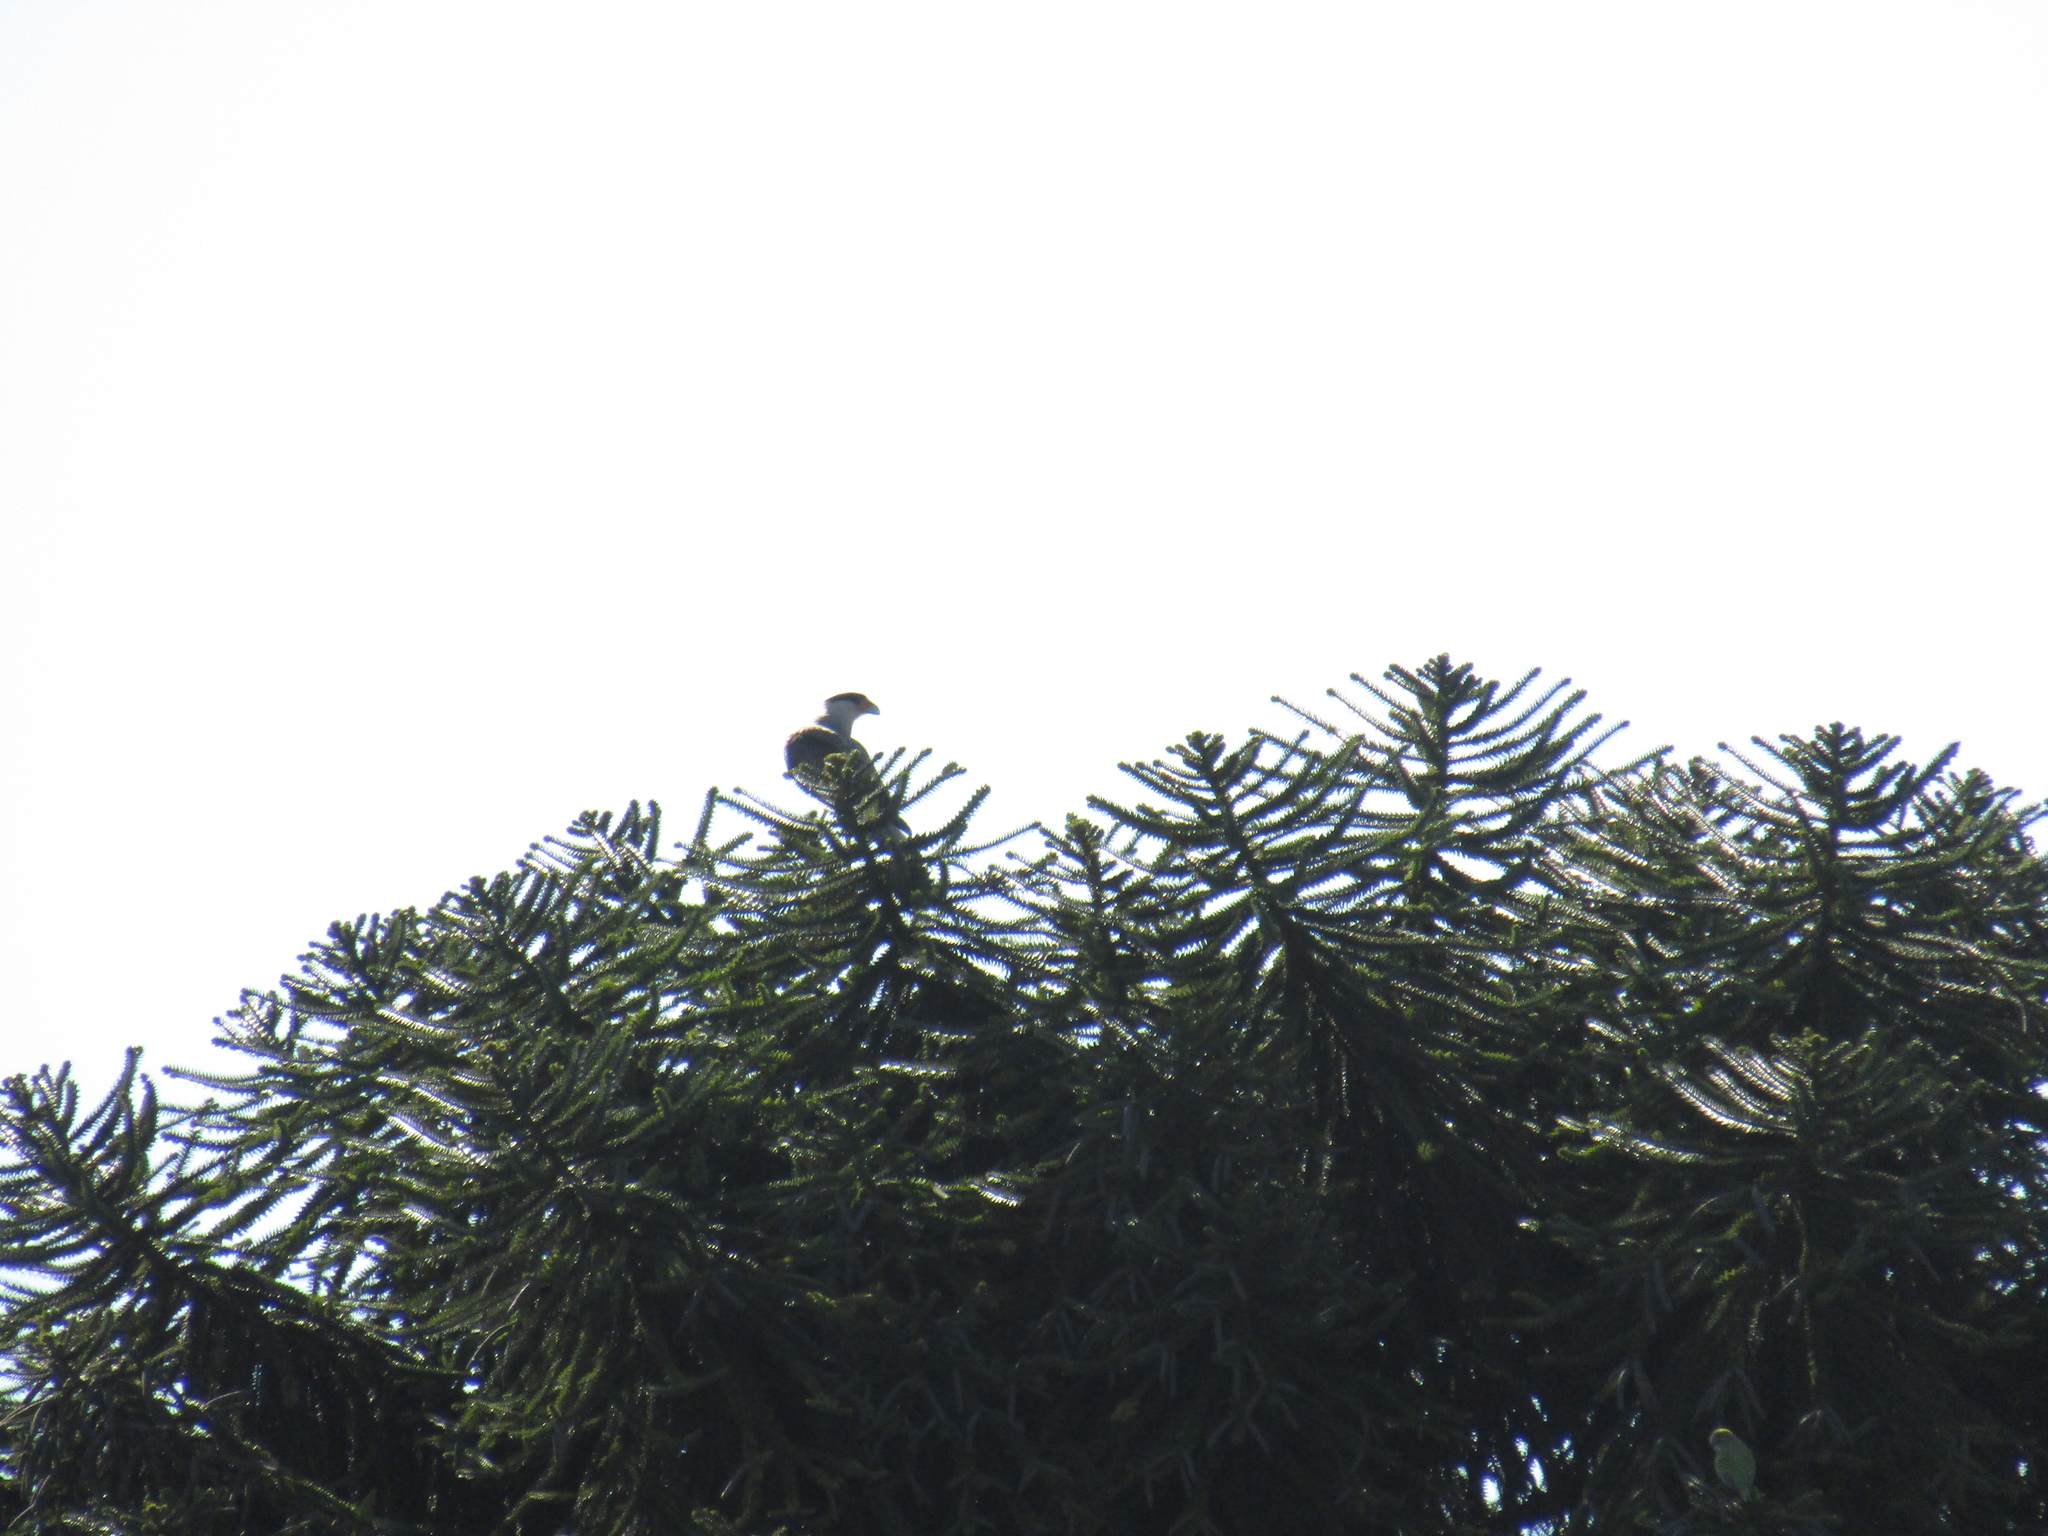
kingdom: Animalia
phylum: Chordata
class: Aves
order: Falconiformes
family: Falconidae
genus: Caracara
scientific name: Caracara plancus
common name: Southern caracara
